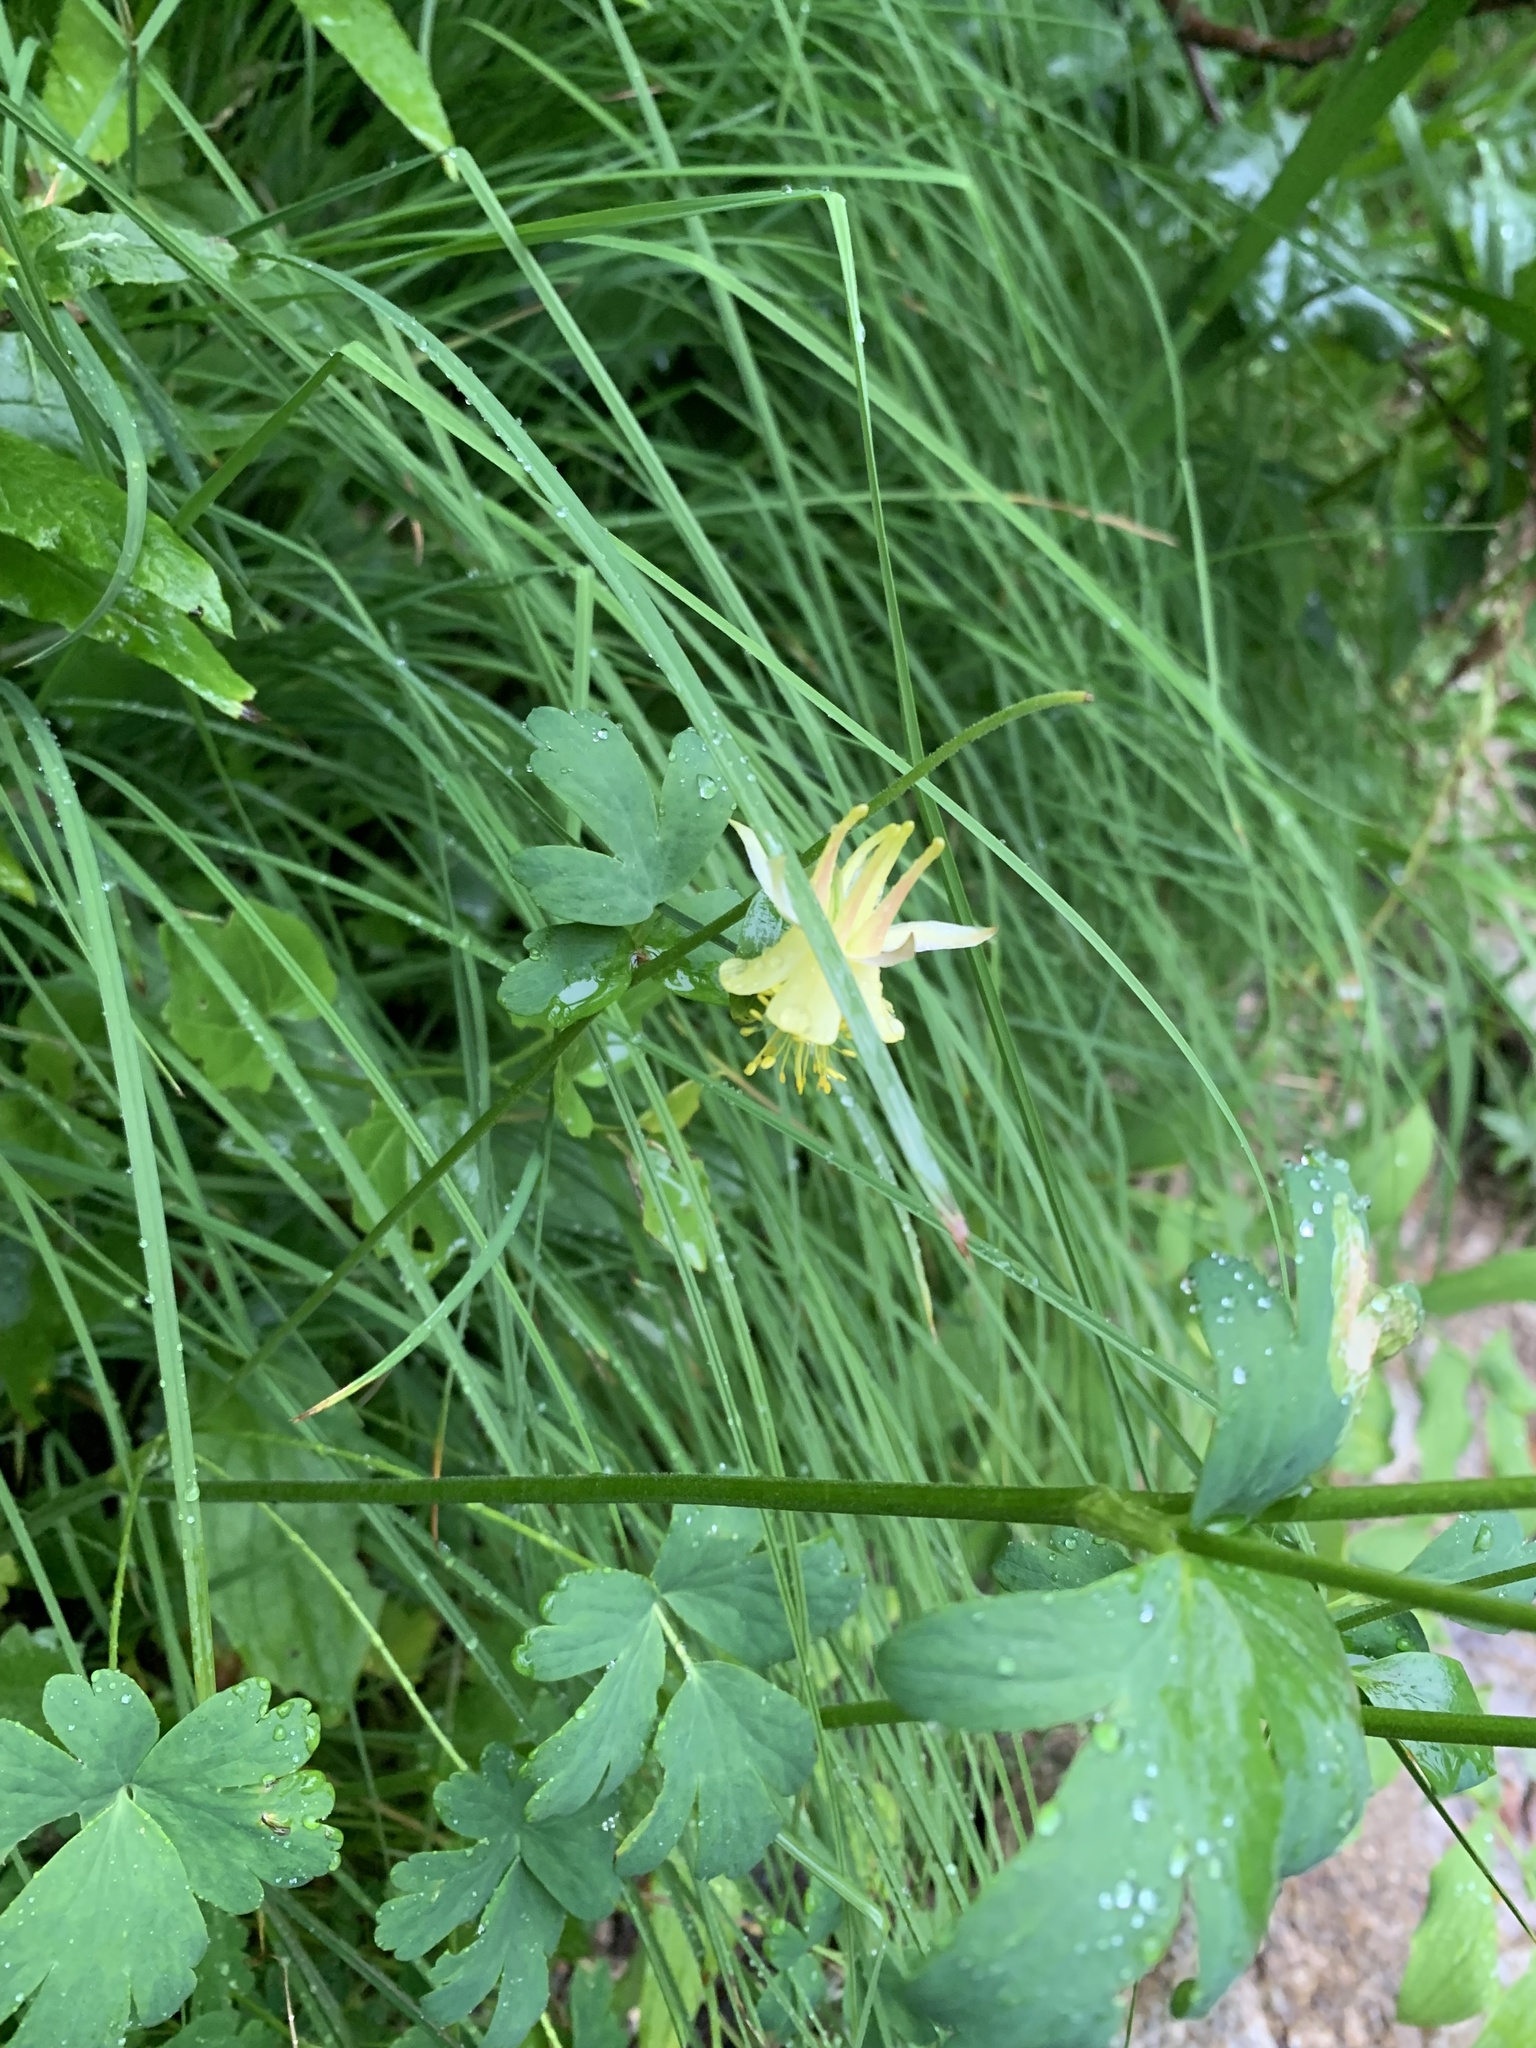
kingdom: Plantae
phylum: Tracheophyta
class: Magnoliopsida
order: Ranunculales
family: Ranunculaceae
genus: Aquilegia
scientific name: Aquilegia flavescens
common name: Yellow columbine
